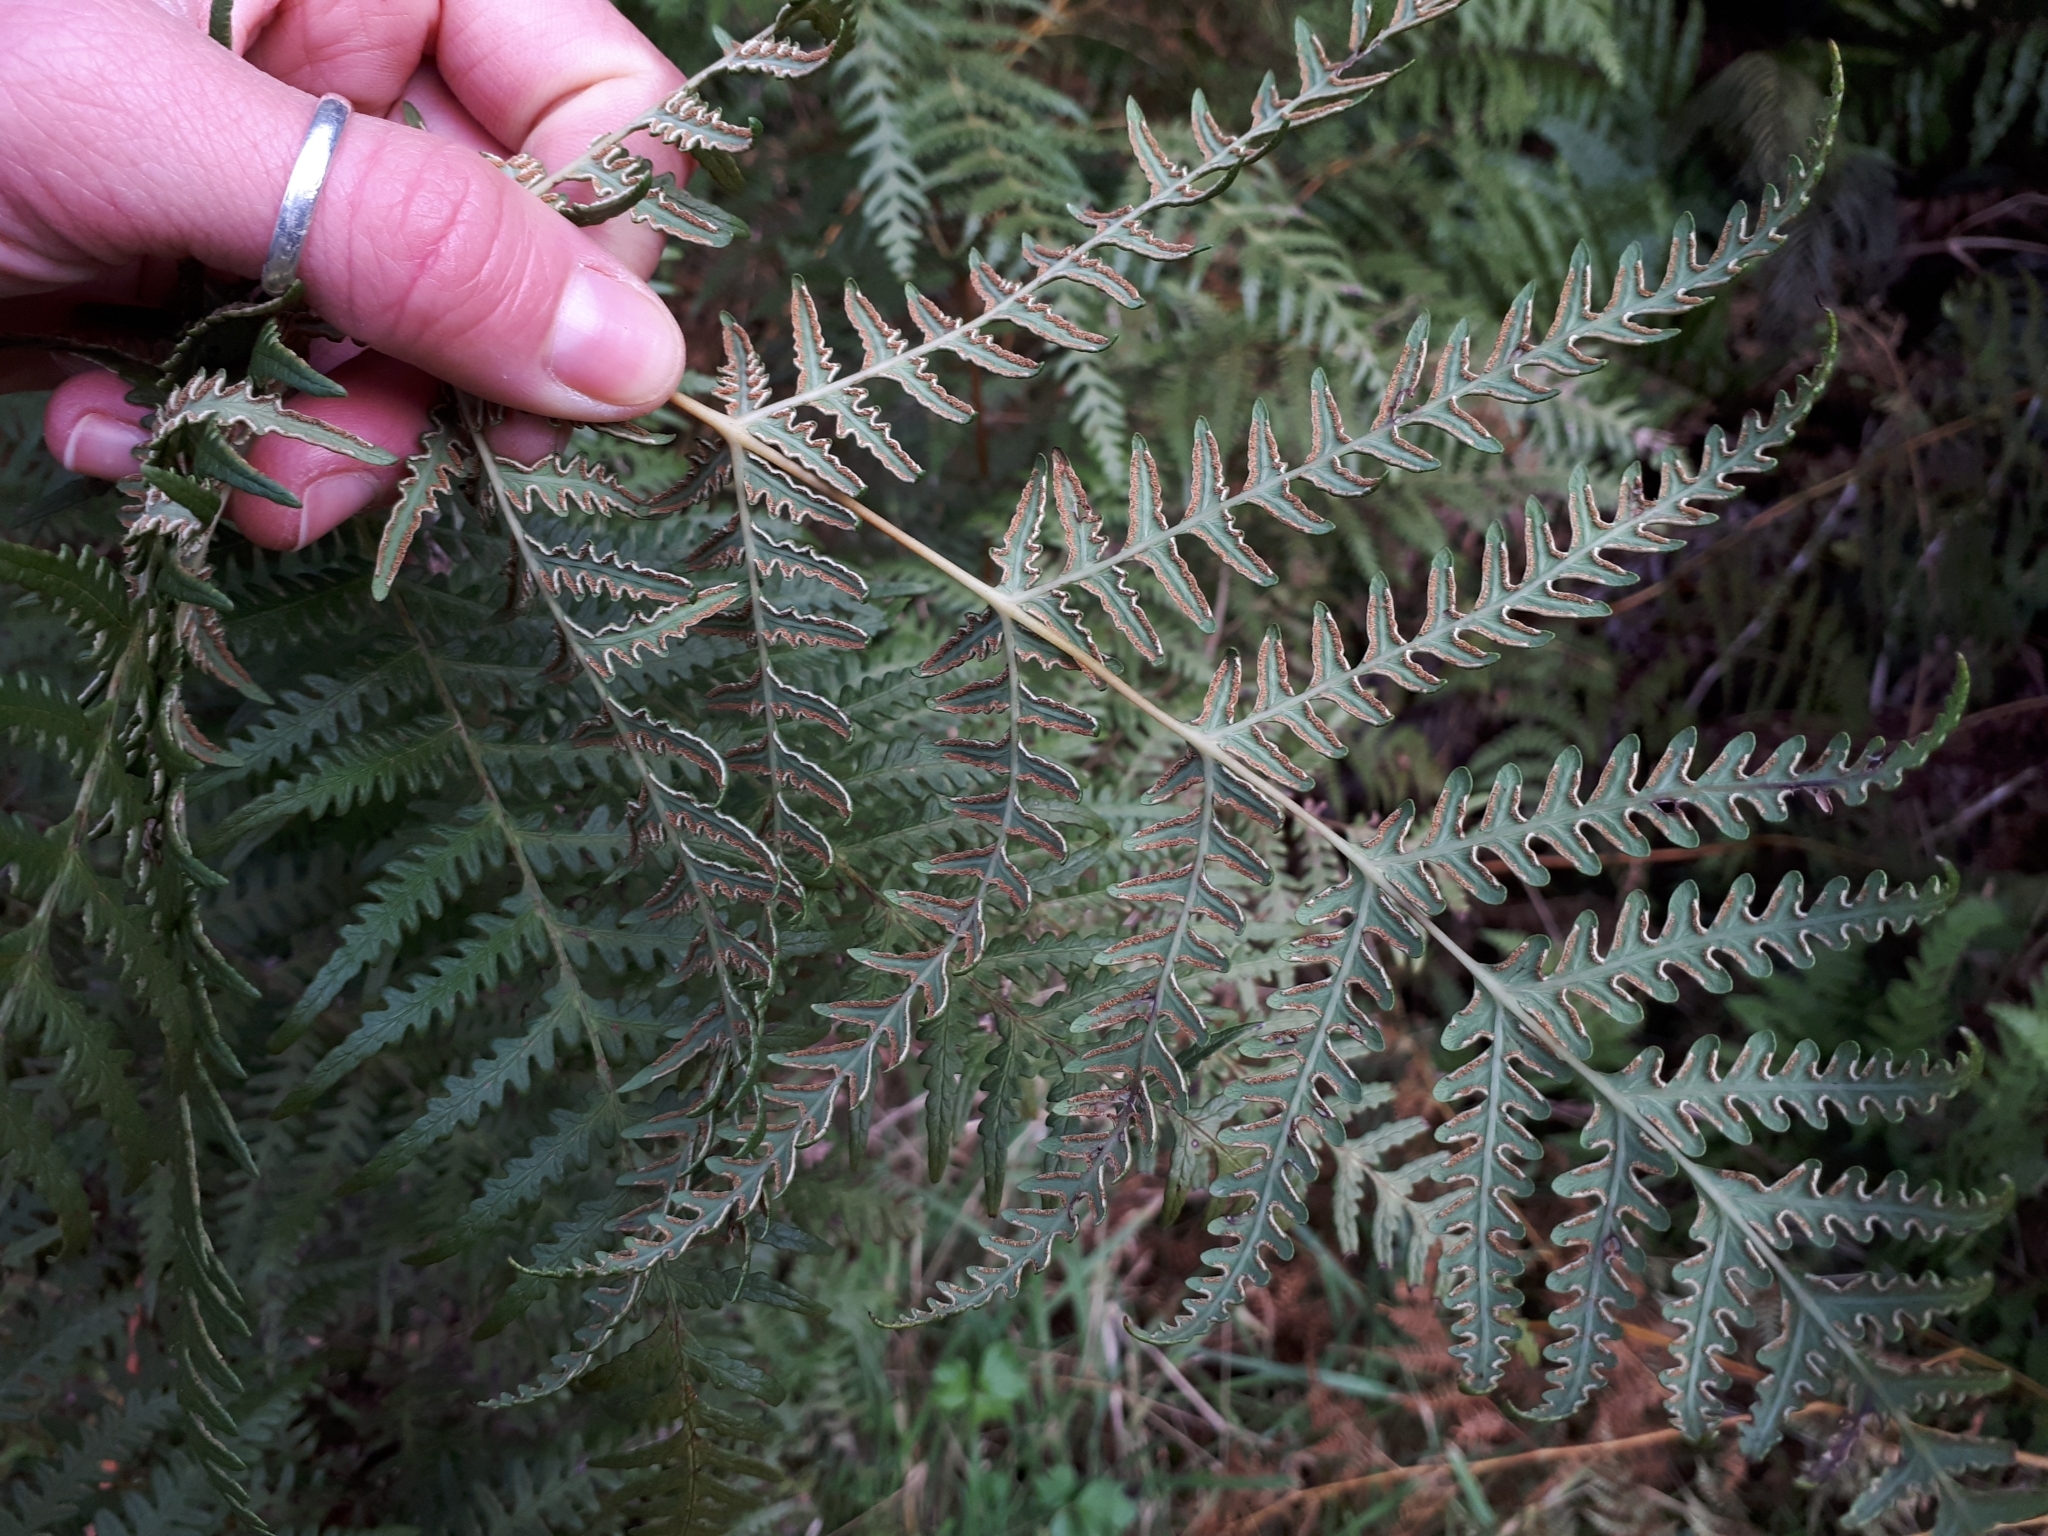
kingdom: Plantae
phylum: Tracheophyta
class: Polypodiopsida
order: Polypodiales
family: Dennstaedtiaceae
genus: Histiopteris
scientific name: Histiopteris incisa
